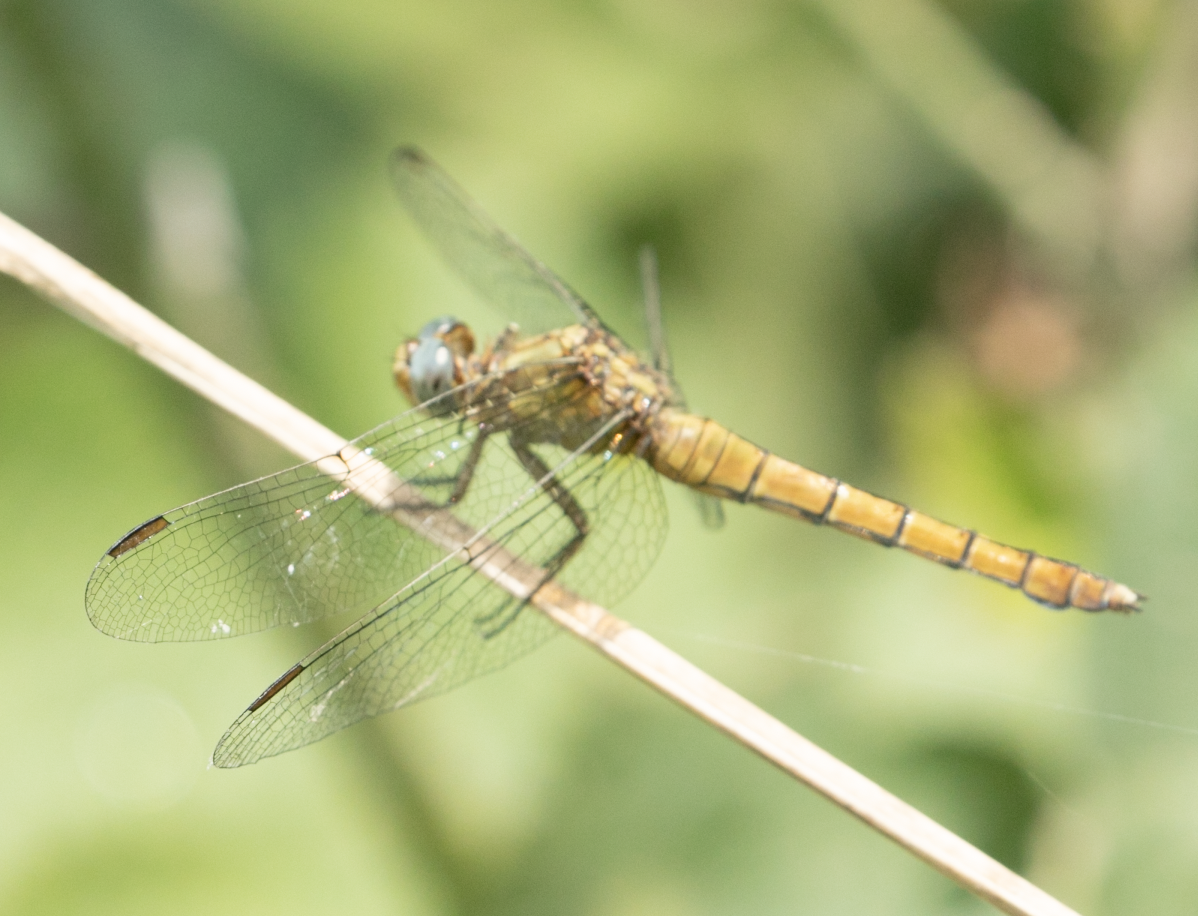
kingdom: Animalia
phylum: Arthropoda
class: Insecta
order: Odonata
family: Libellulidae
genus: Orthetrum
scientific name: Orthetrum coerulescens
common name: Keeled skimmer
